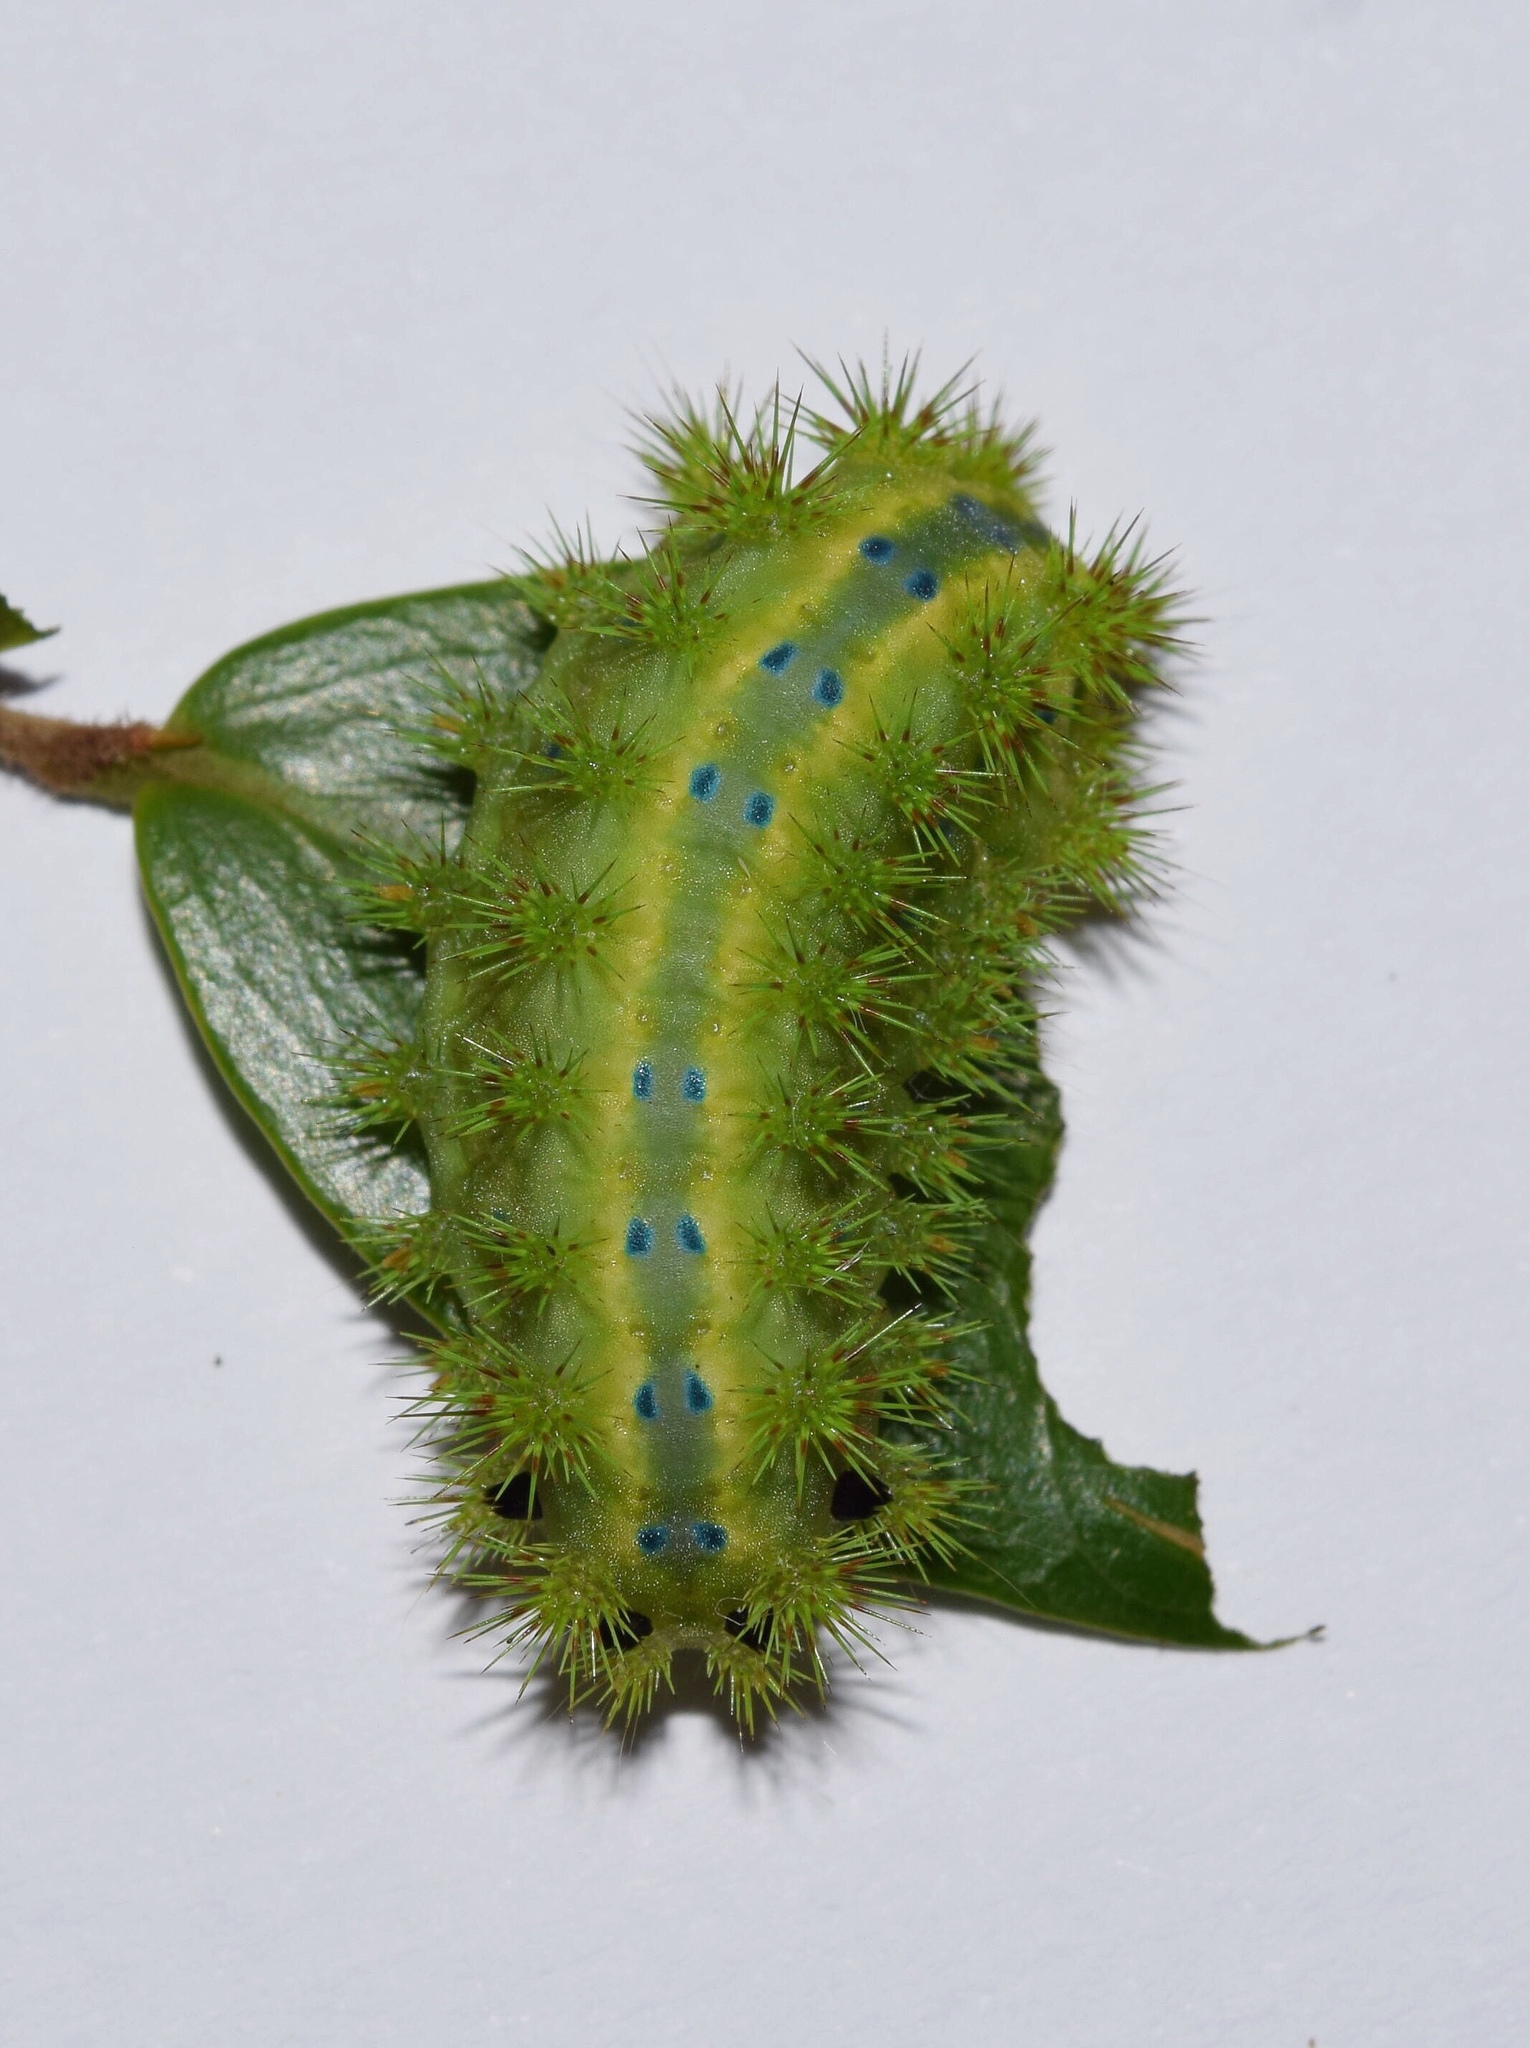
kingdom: Animalia
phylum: Arthropoda
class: Insecta
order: Lepidoptera
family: Limacodidae
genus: Parasa
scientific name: Parasa latistriga
